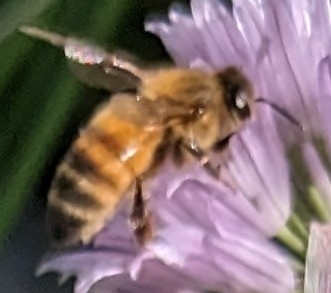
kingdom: Animalia
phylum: Arthropoda
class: Insecta
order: Hymenoptera
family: Apidae
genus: Apis
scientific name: Apis mellifera
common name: Honey bee
